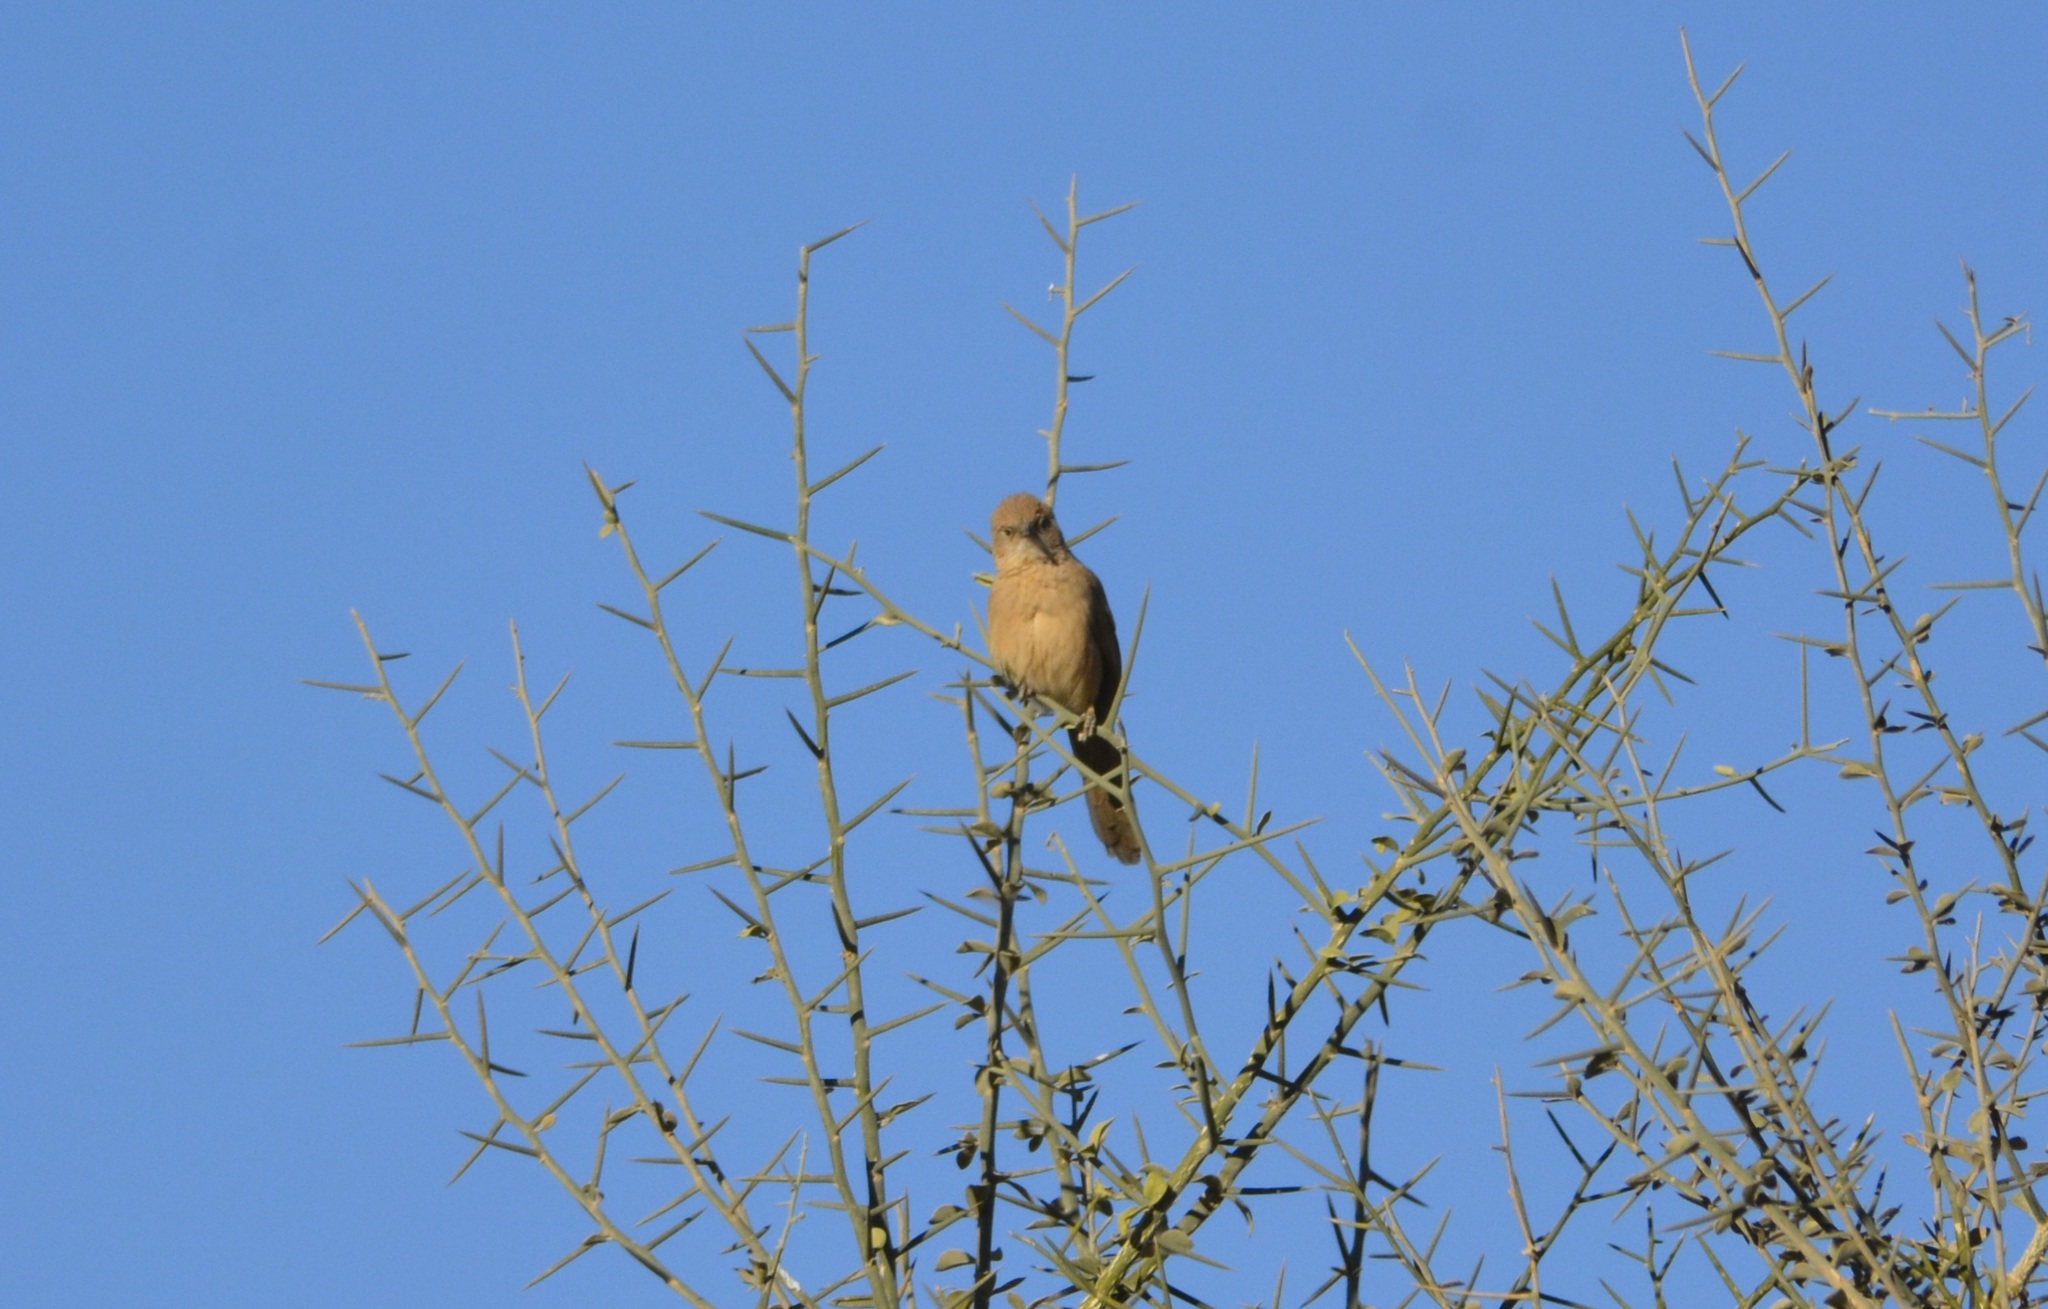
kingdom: Animalia
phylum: Chordata
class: Aves
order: Passeriformes
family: Leiothrichidae
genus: Turdoides
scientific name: Turdoides fulva
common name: Fulvous babbler
